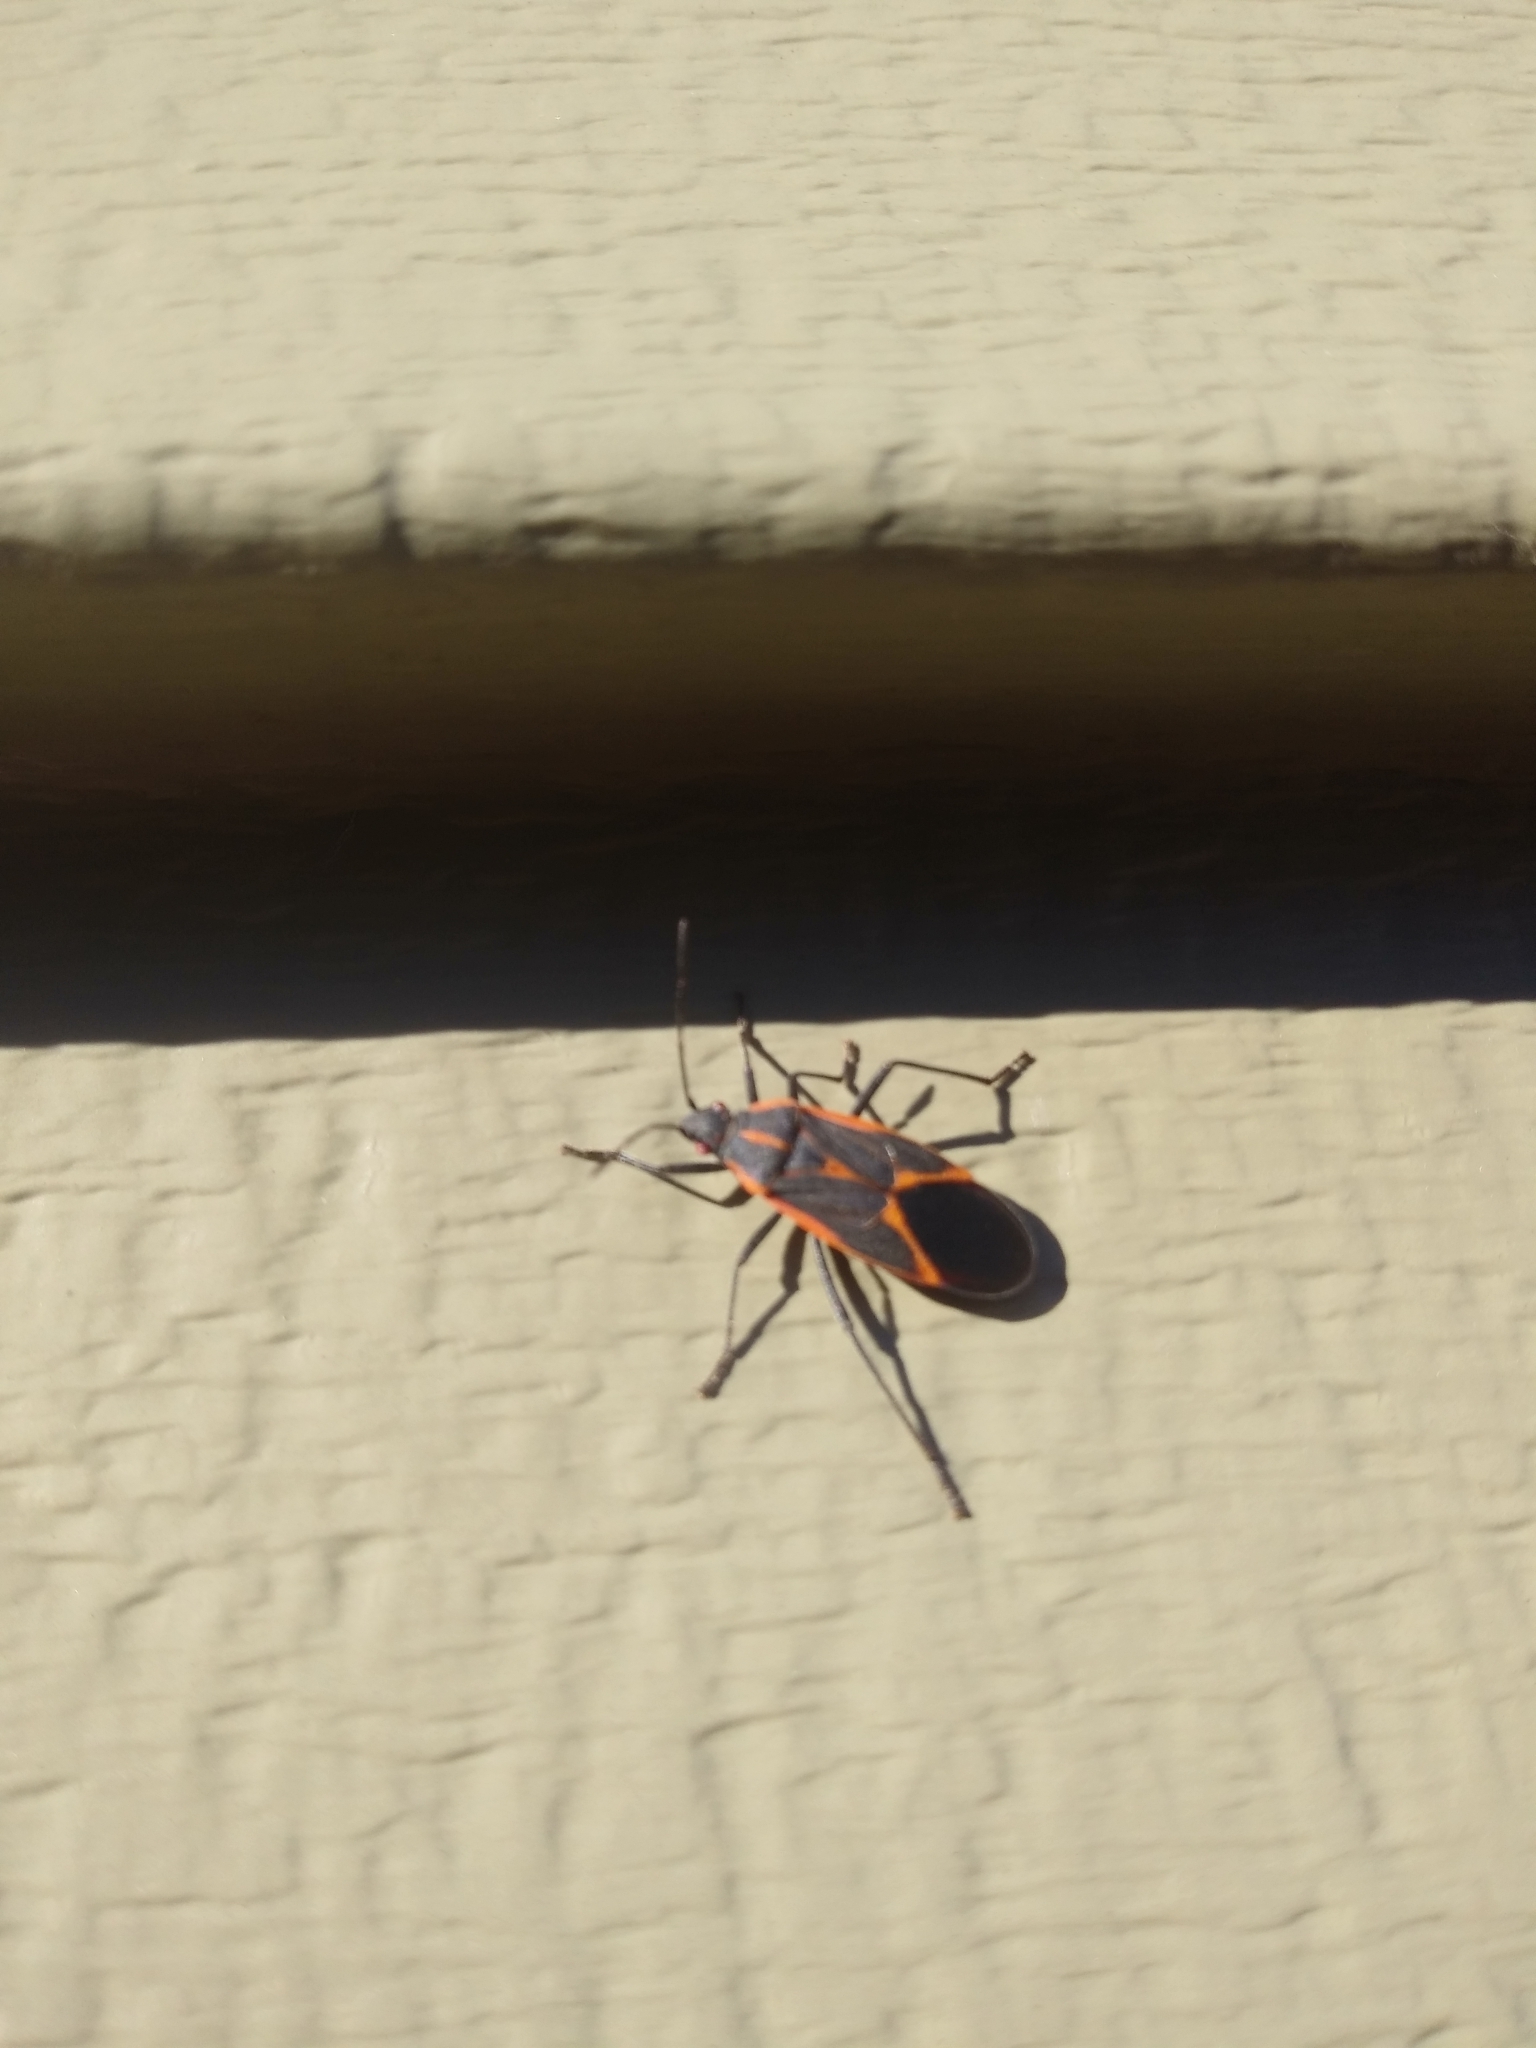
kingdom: Animalia
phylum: Arthropoda
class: Insecta
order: Hemiptera
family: Rhopalidae
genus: Boisea
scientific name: Boisea trivittata
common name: Boxelder bug
